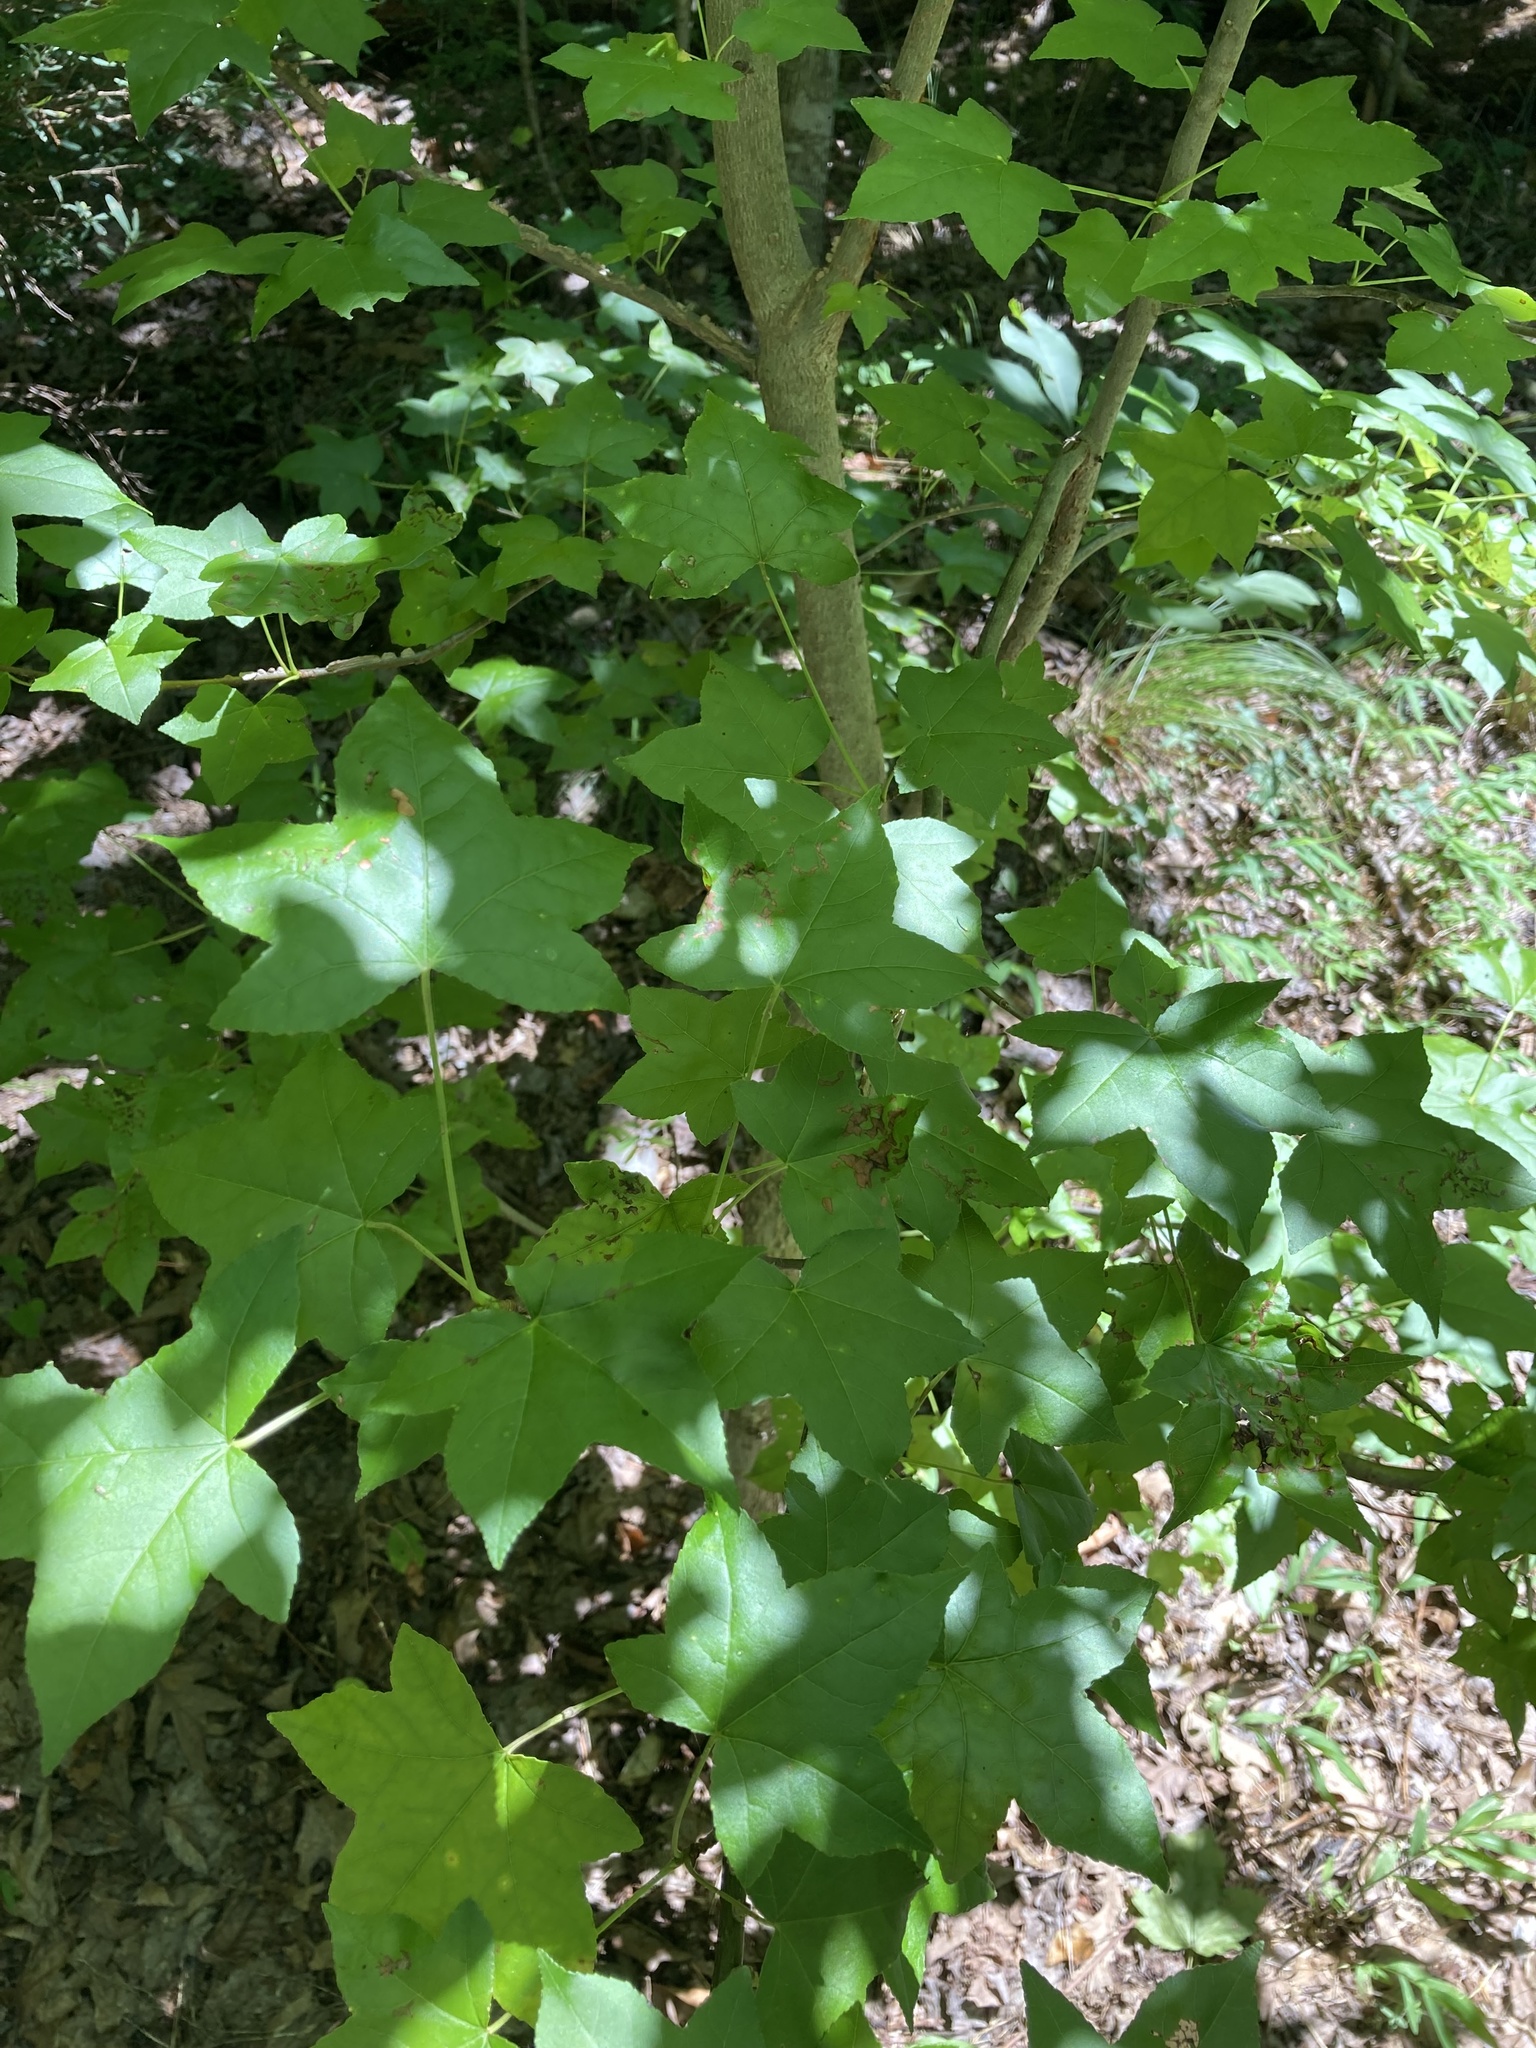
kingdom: Plantae
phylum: Tracheophyta
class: Magnoliopsida
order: Saxifragales
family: Altingiaceae
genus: Liquidambar
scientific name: Liquidambar styraciflua
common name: Sweet gum
